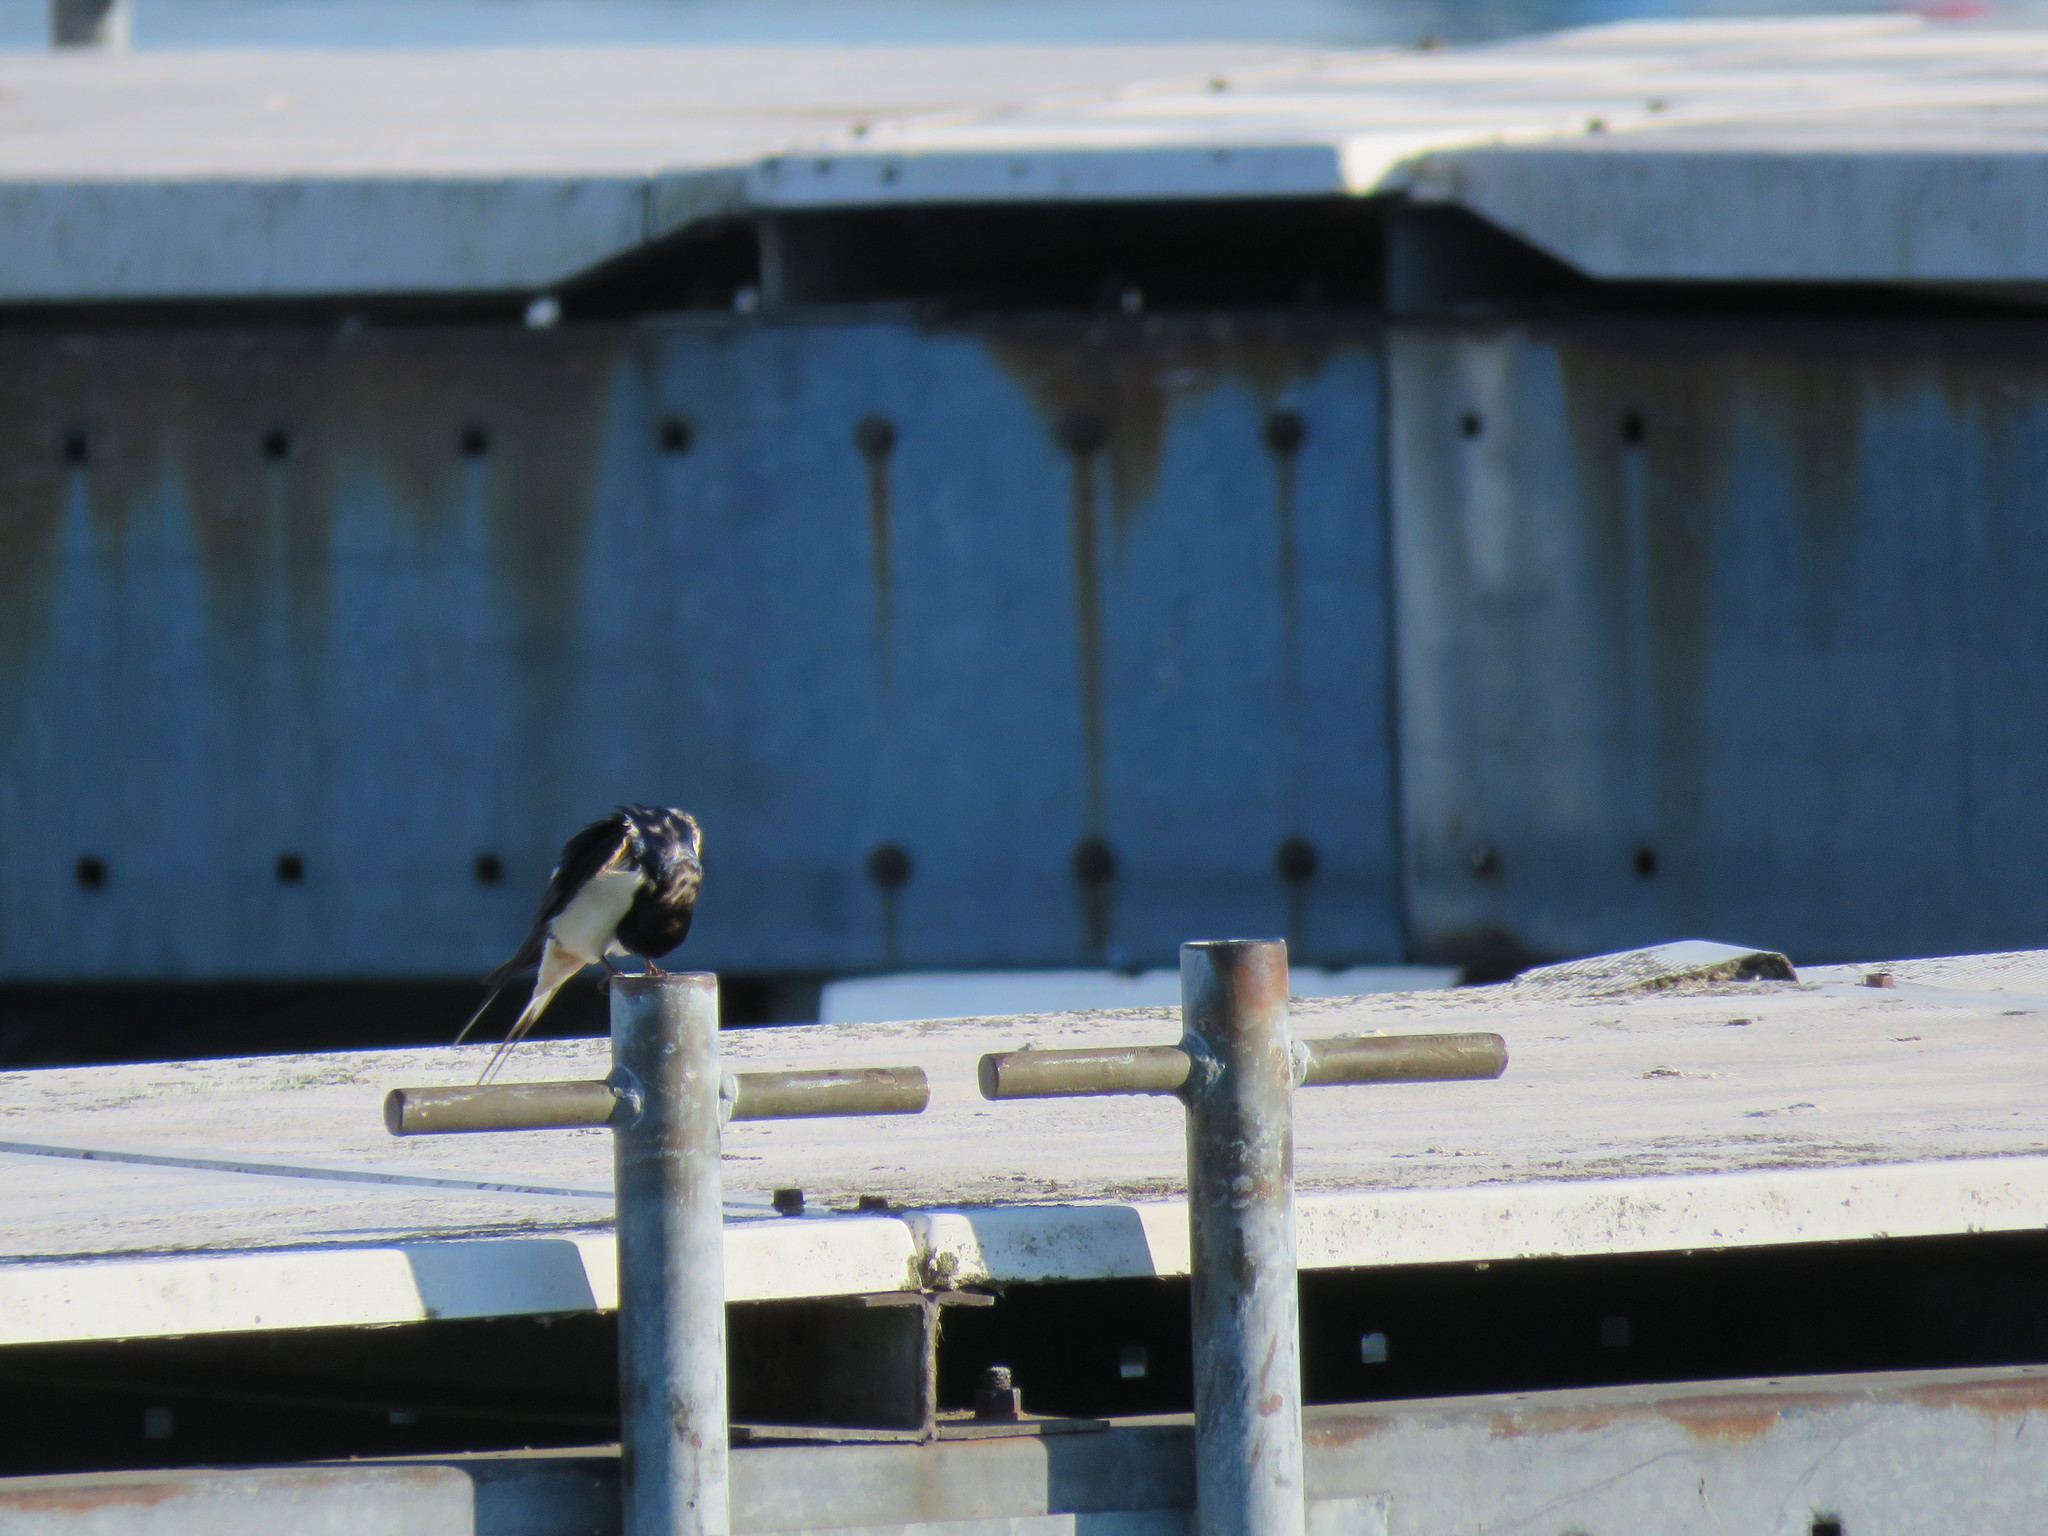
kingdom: Animalia
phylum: Chordata
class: Aves
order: Passeriformes
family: Hirundinidae
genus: Hirundo
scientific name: Hirundo rustica
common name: Barn swallow
